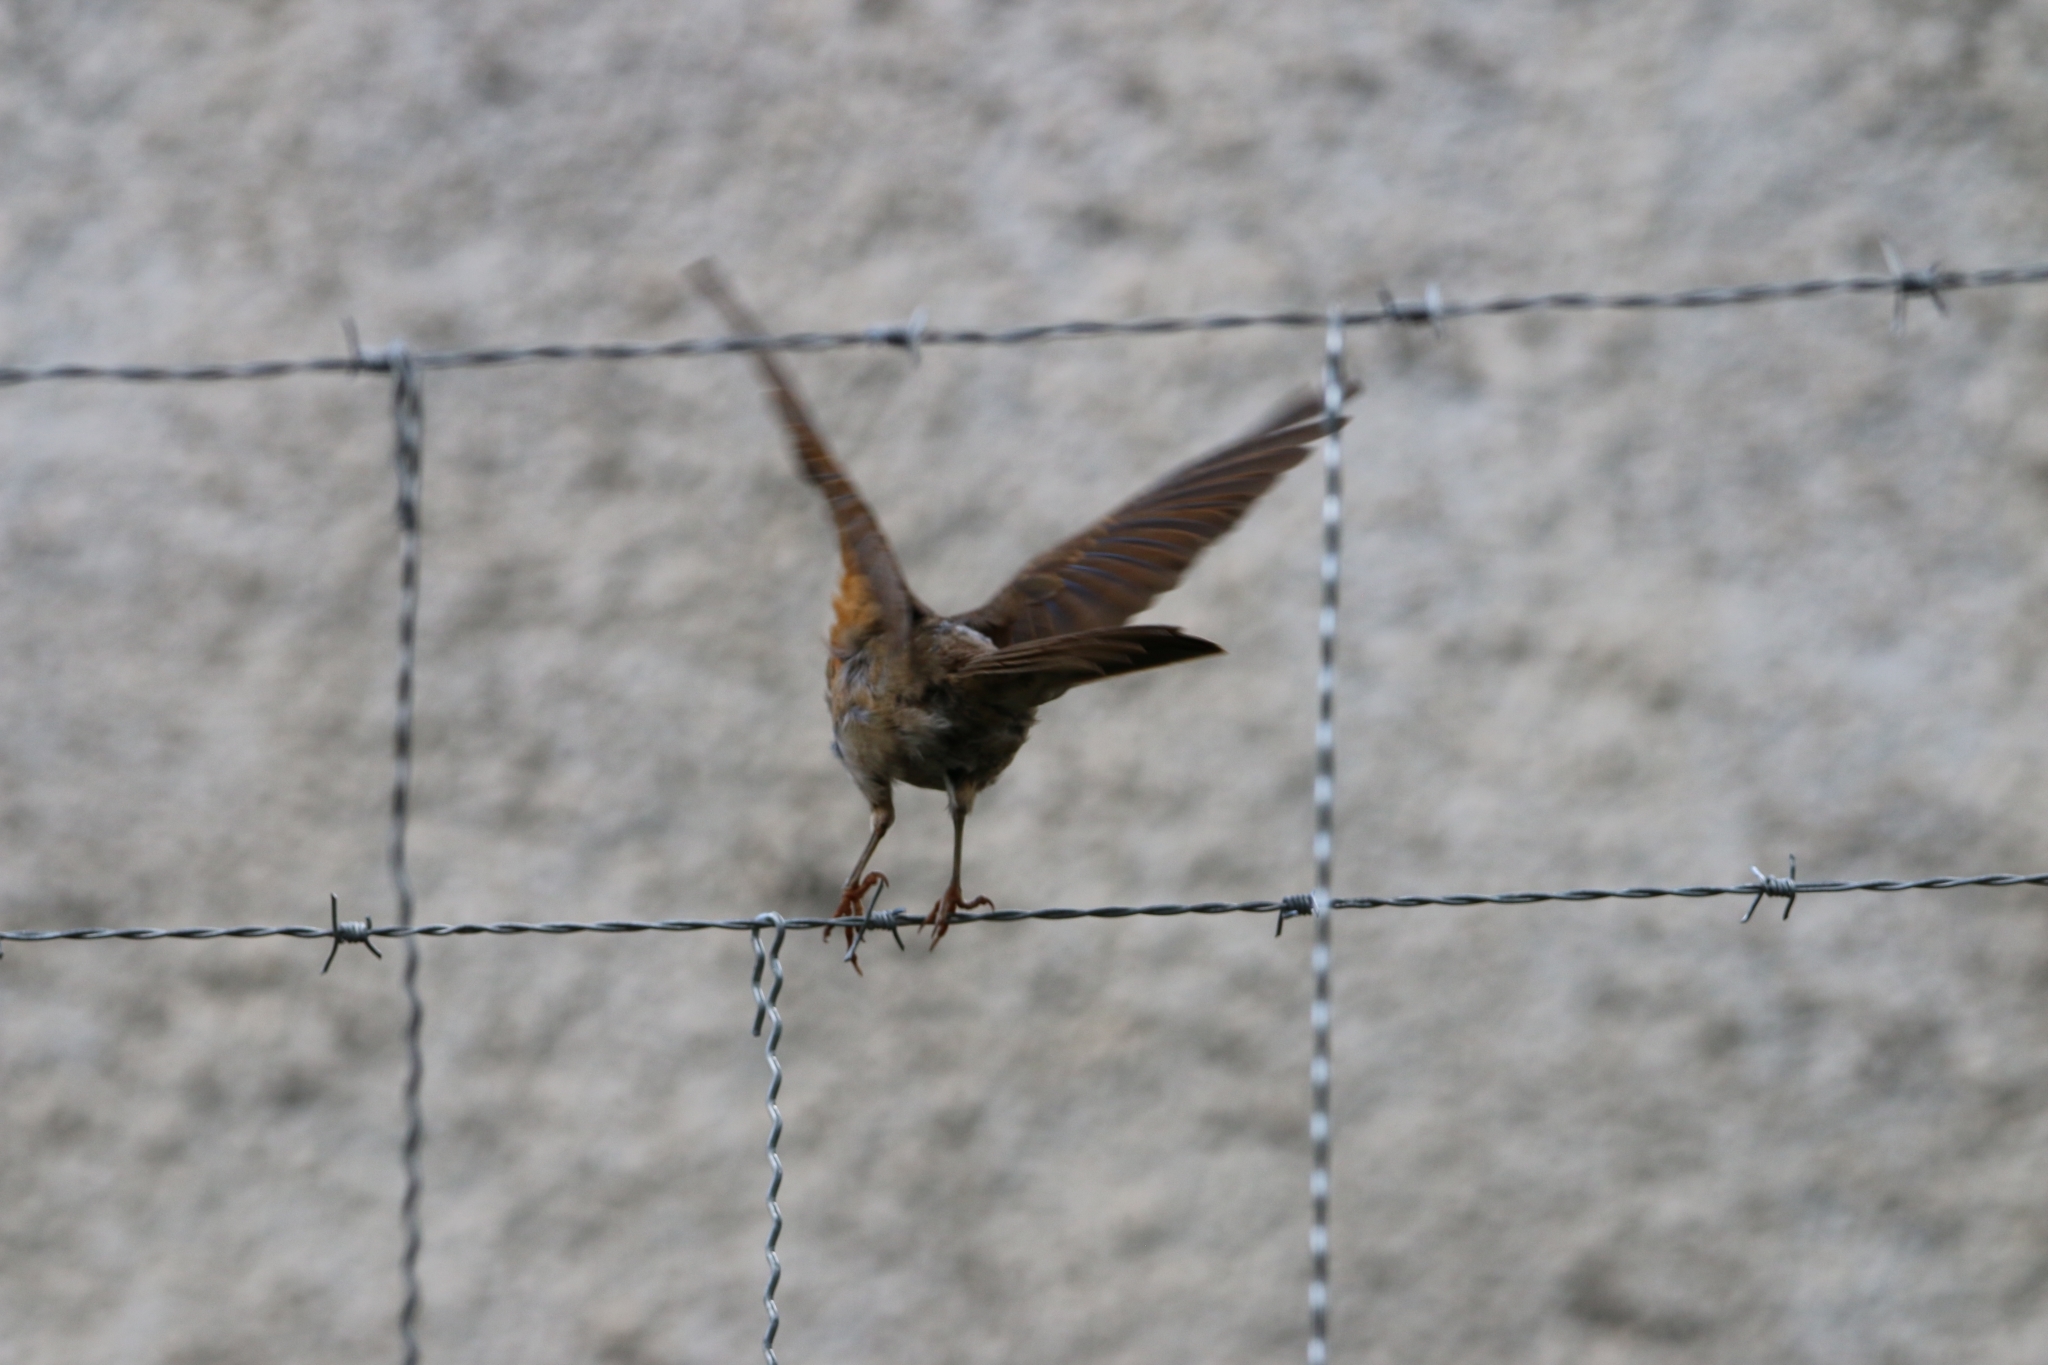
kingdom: Animalia
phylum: Chordata
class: Aves
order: Passeriformes
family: Turdidae
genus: Turdus
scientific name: Turdus leucomelas
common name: Pale-breasted thrush
